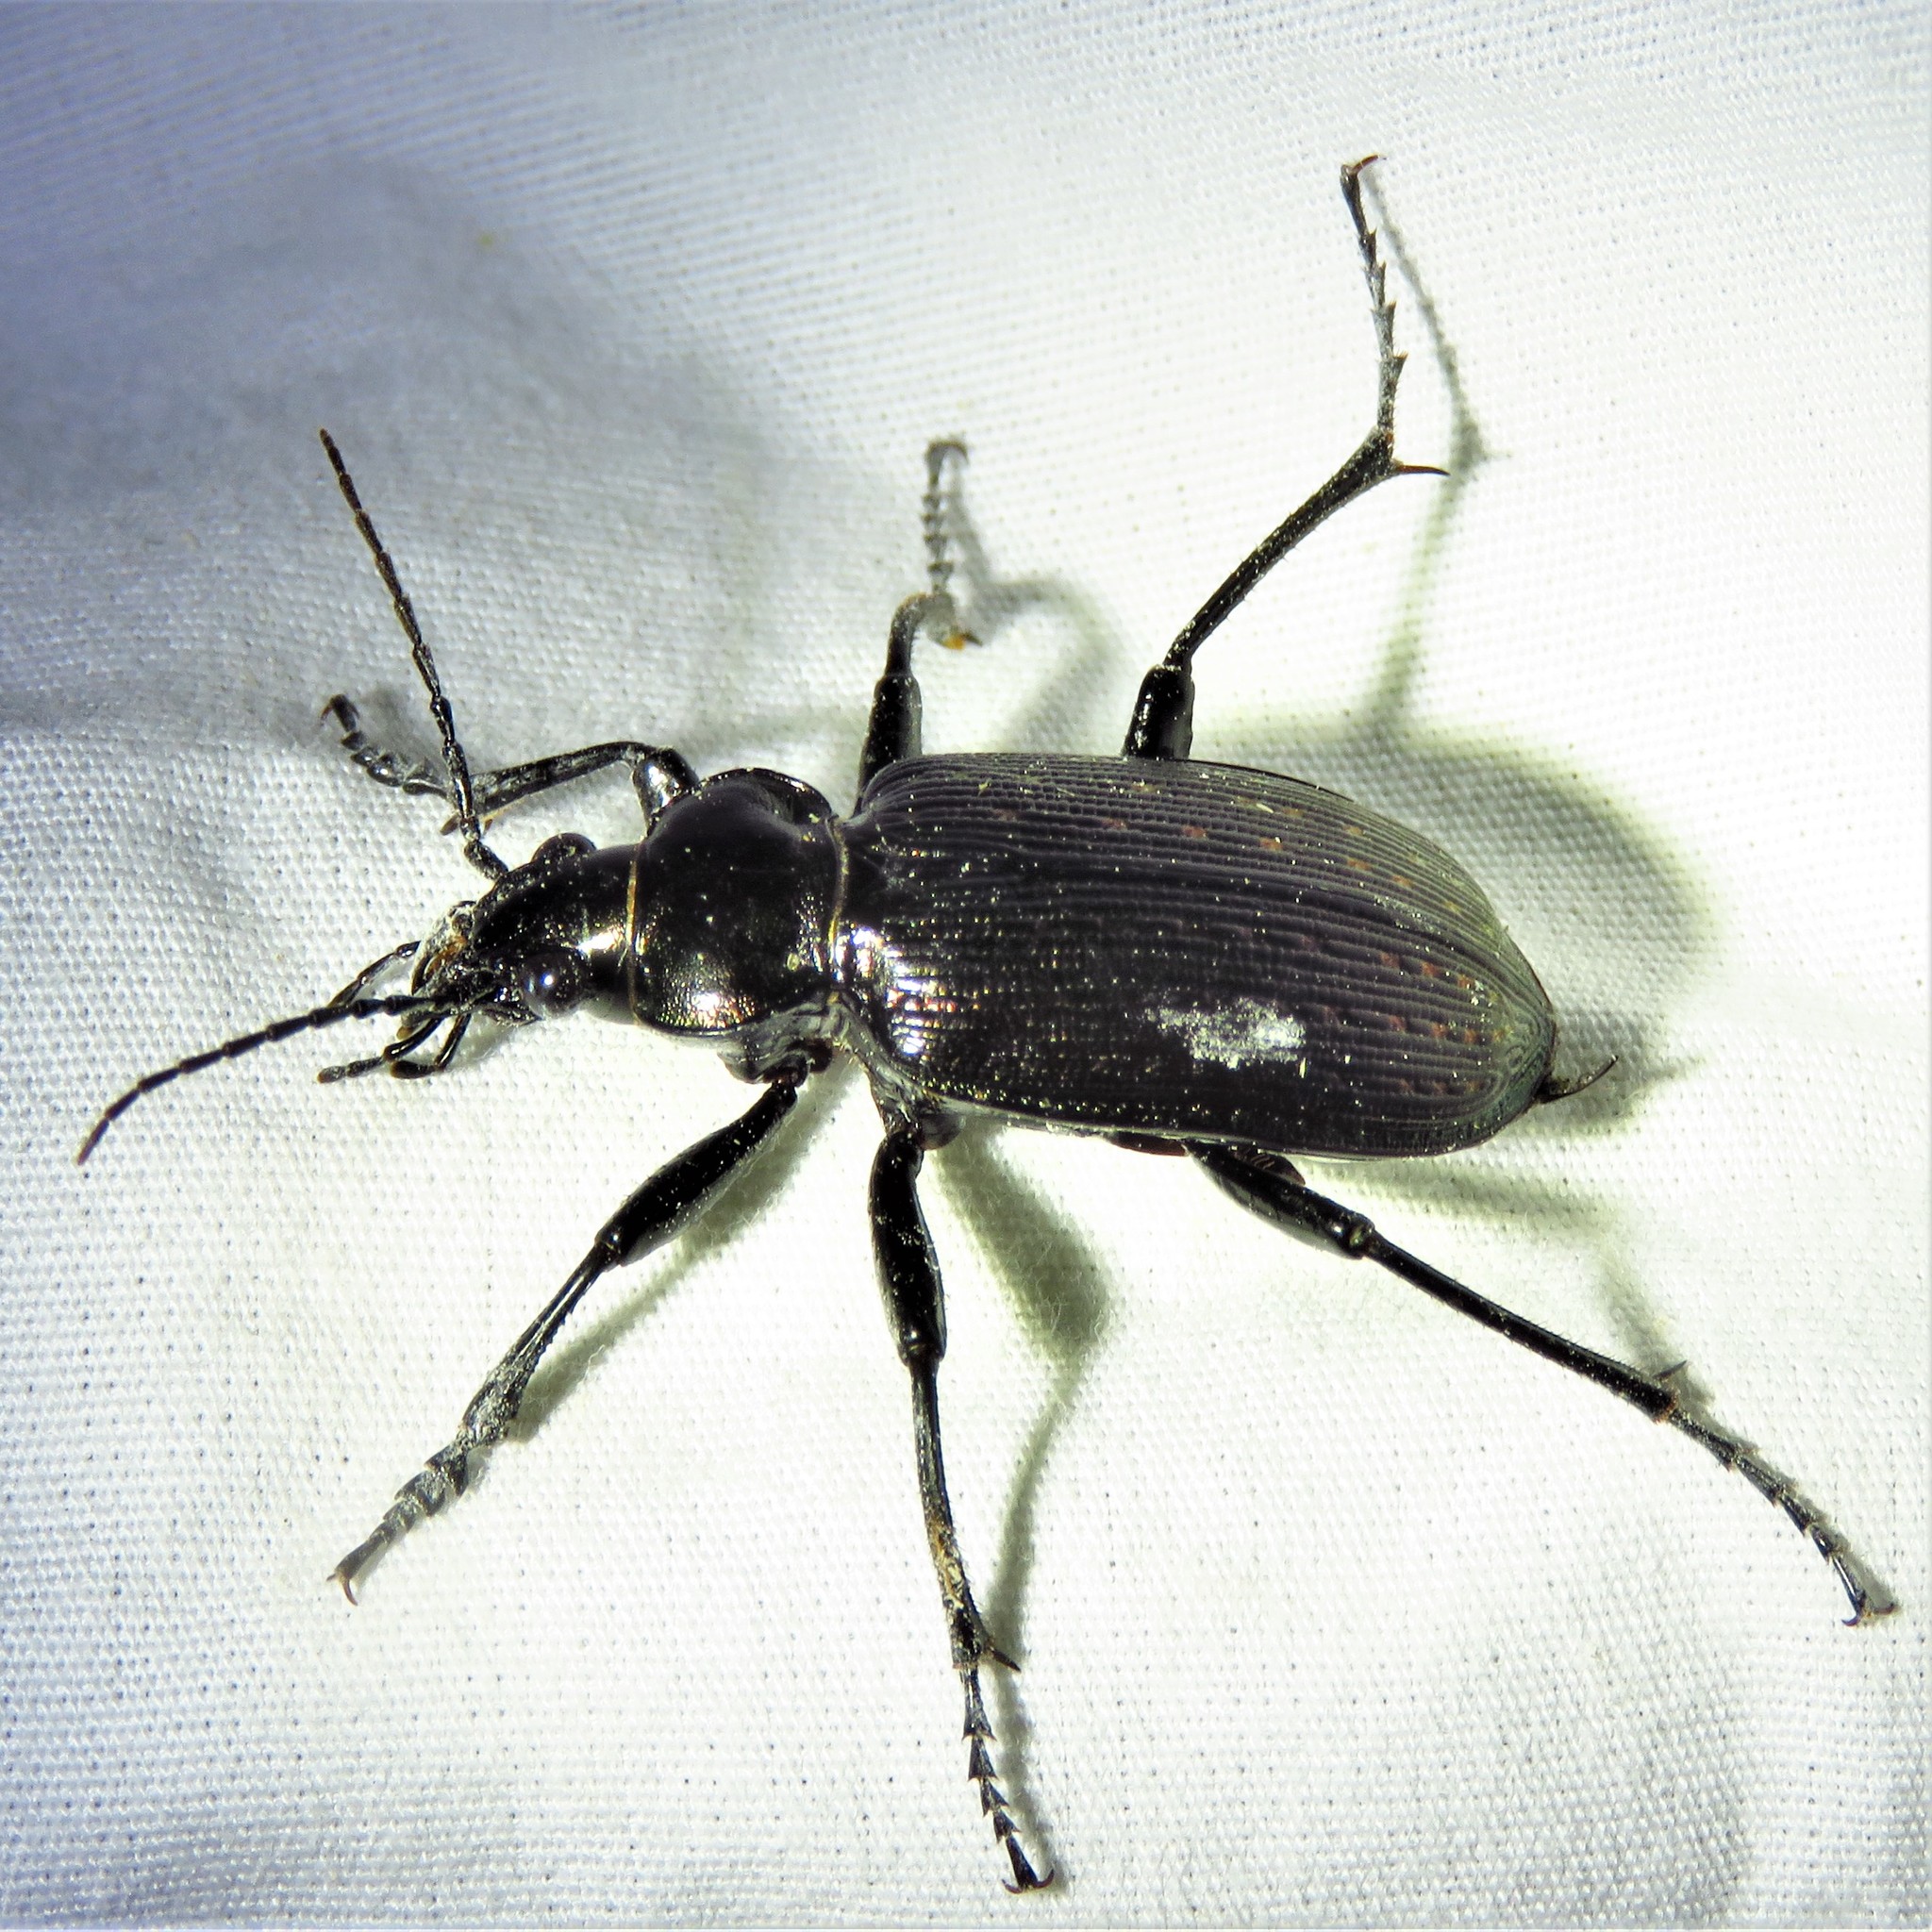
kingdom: Animalia
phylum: Arthropoda
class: Insecta
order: Coleoptera
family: Carabidae
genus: Calosoma
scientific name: Calosoma sayi
